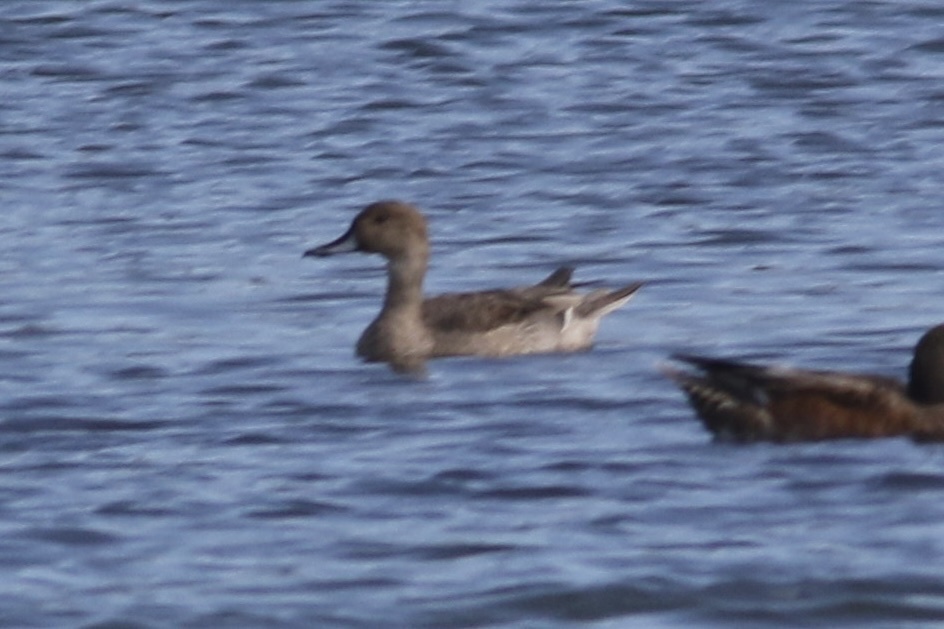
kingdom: Animalia
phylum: Chordata
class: Aves
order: Anseriformes
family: Anatidae
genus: Anas
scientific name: Anas acuta
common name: Northern pintail
